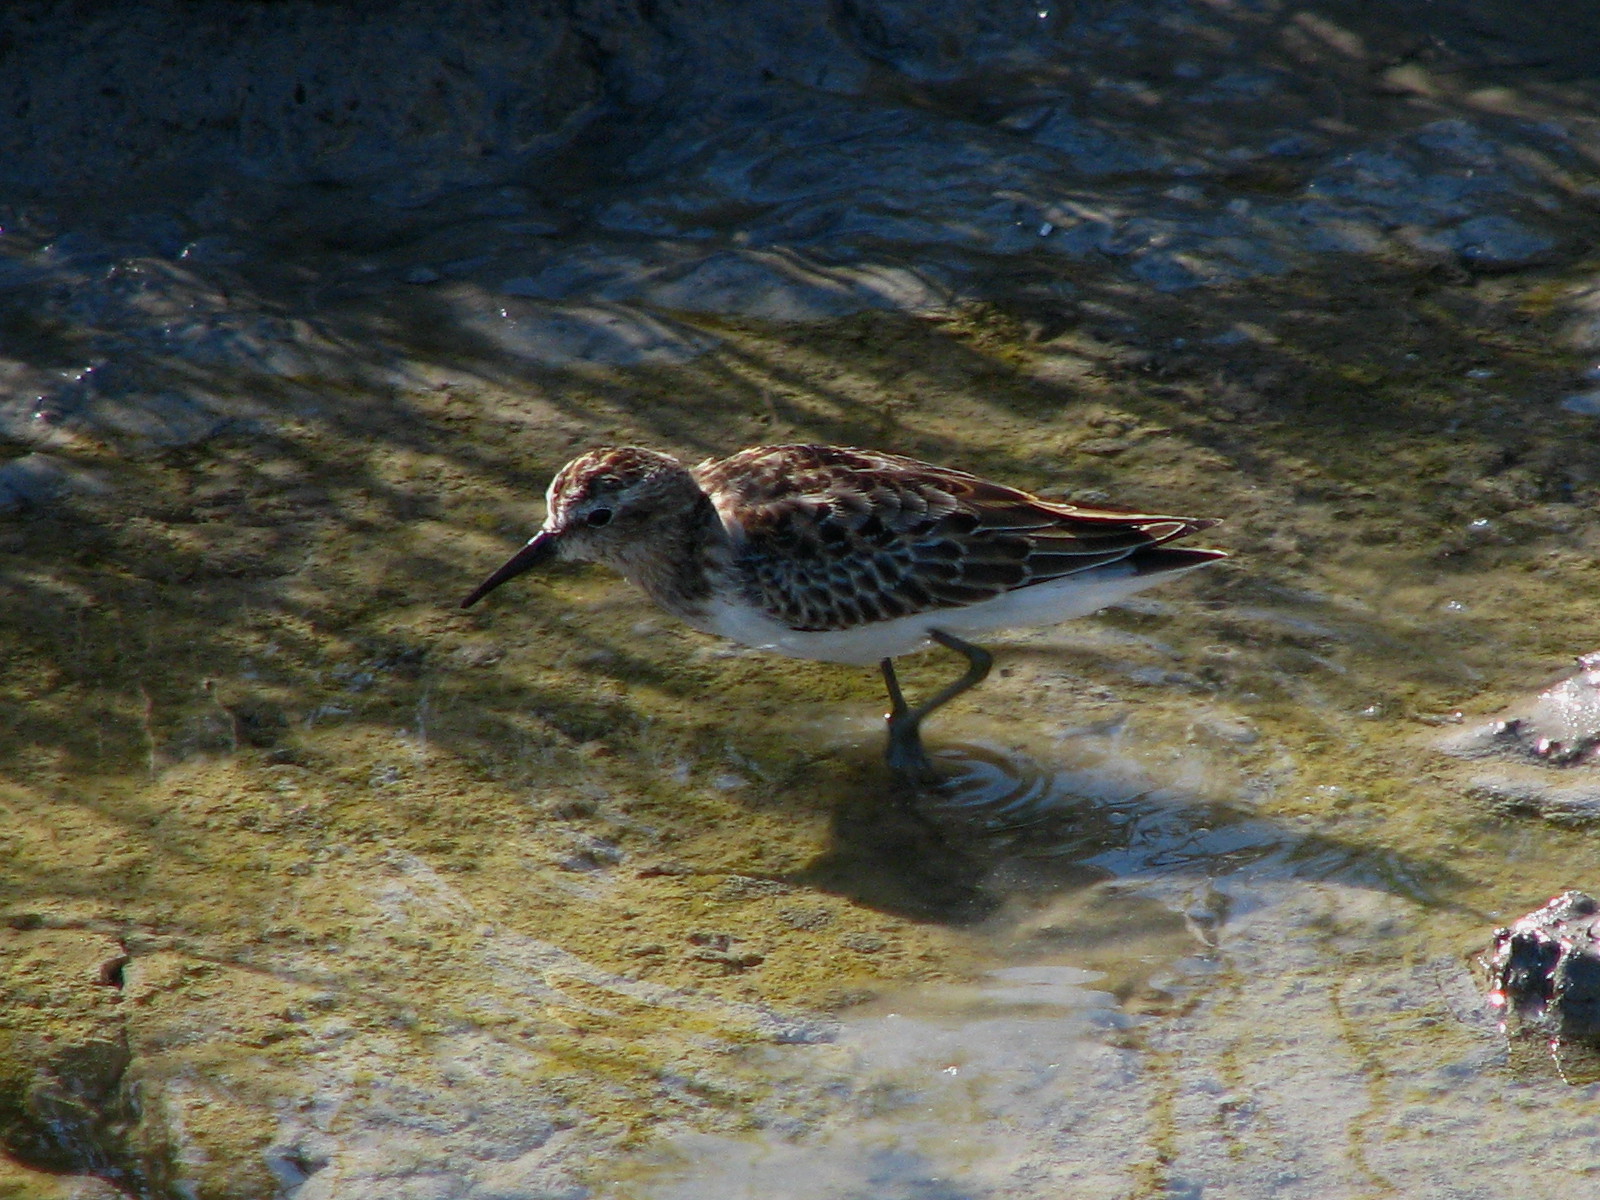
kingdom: Animalia
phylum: Chordata
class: Aves
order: Charadriiformes
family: Scolopacidae
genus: Calidris
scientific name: Calidris minutilla
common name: Least sandpiper
